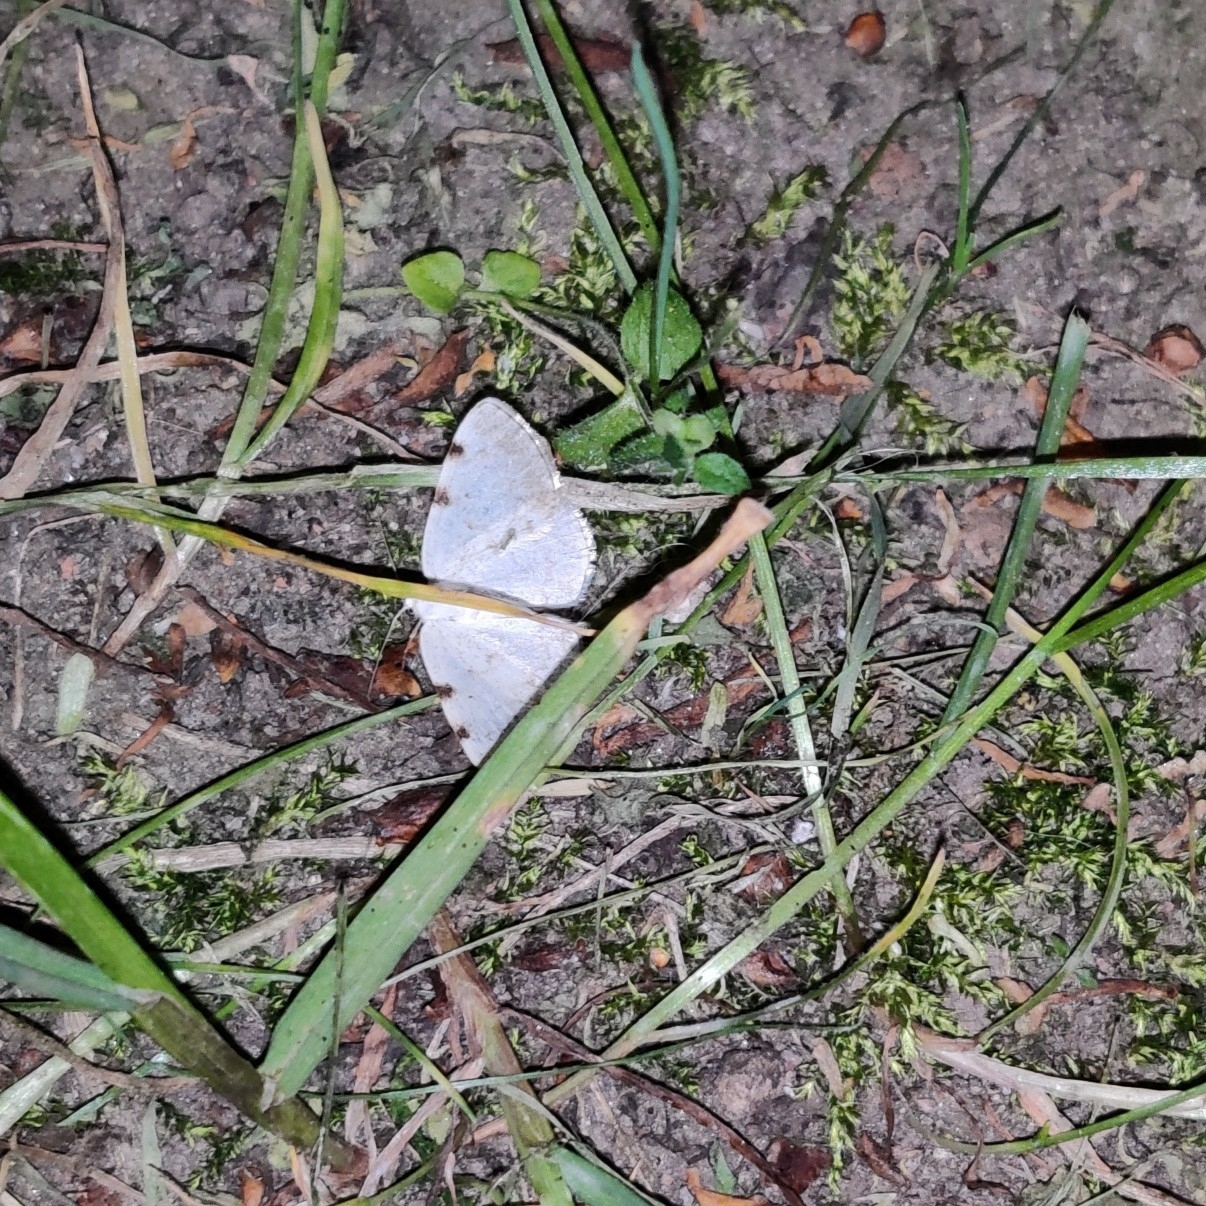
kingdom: Animalia
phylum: Arthropoda
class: Insecta
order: Lepidoptera
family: Geometridae
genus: Lomographa
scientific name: Lomographa bimaculata
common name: White-pinion spotted
